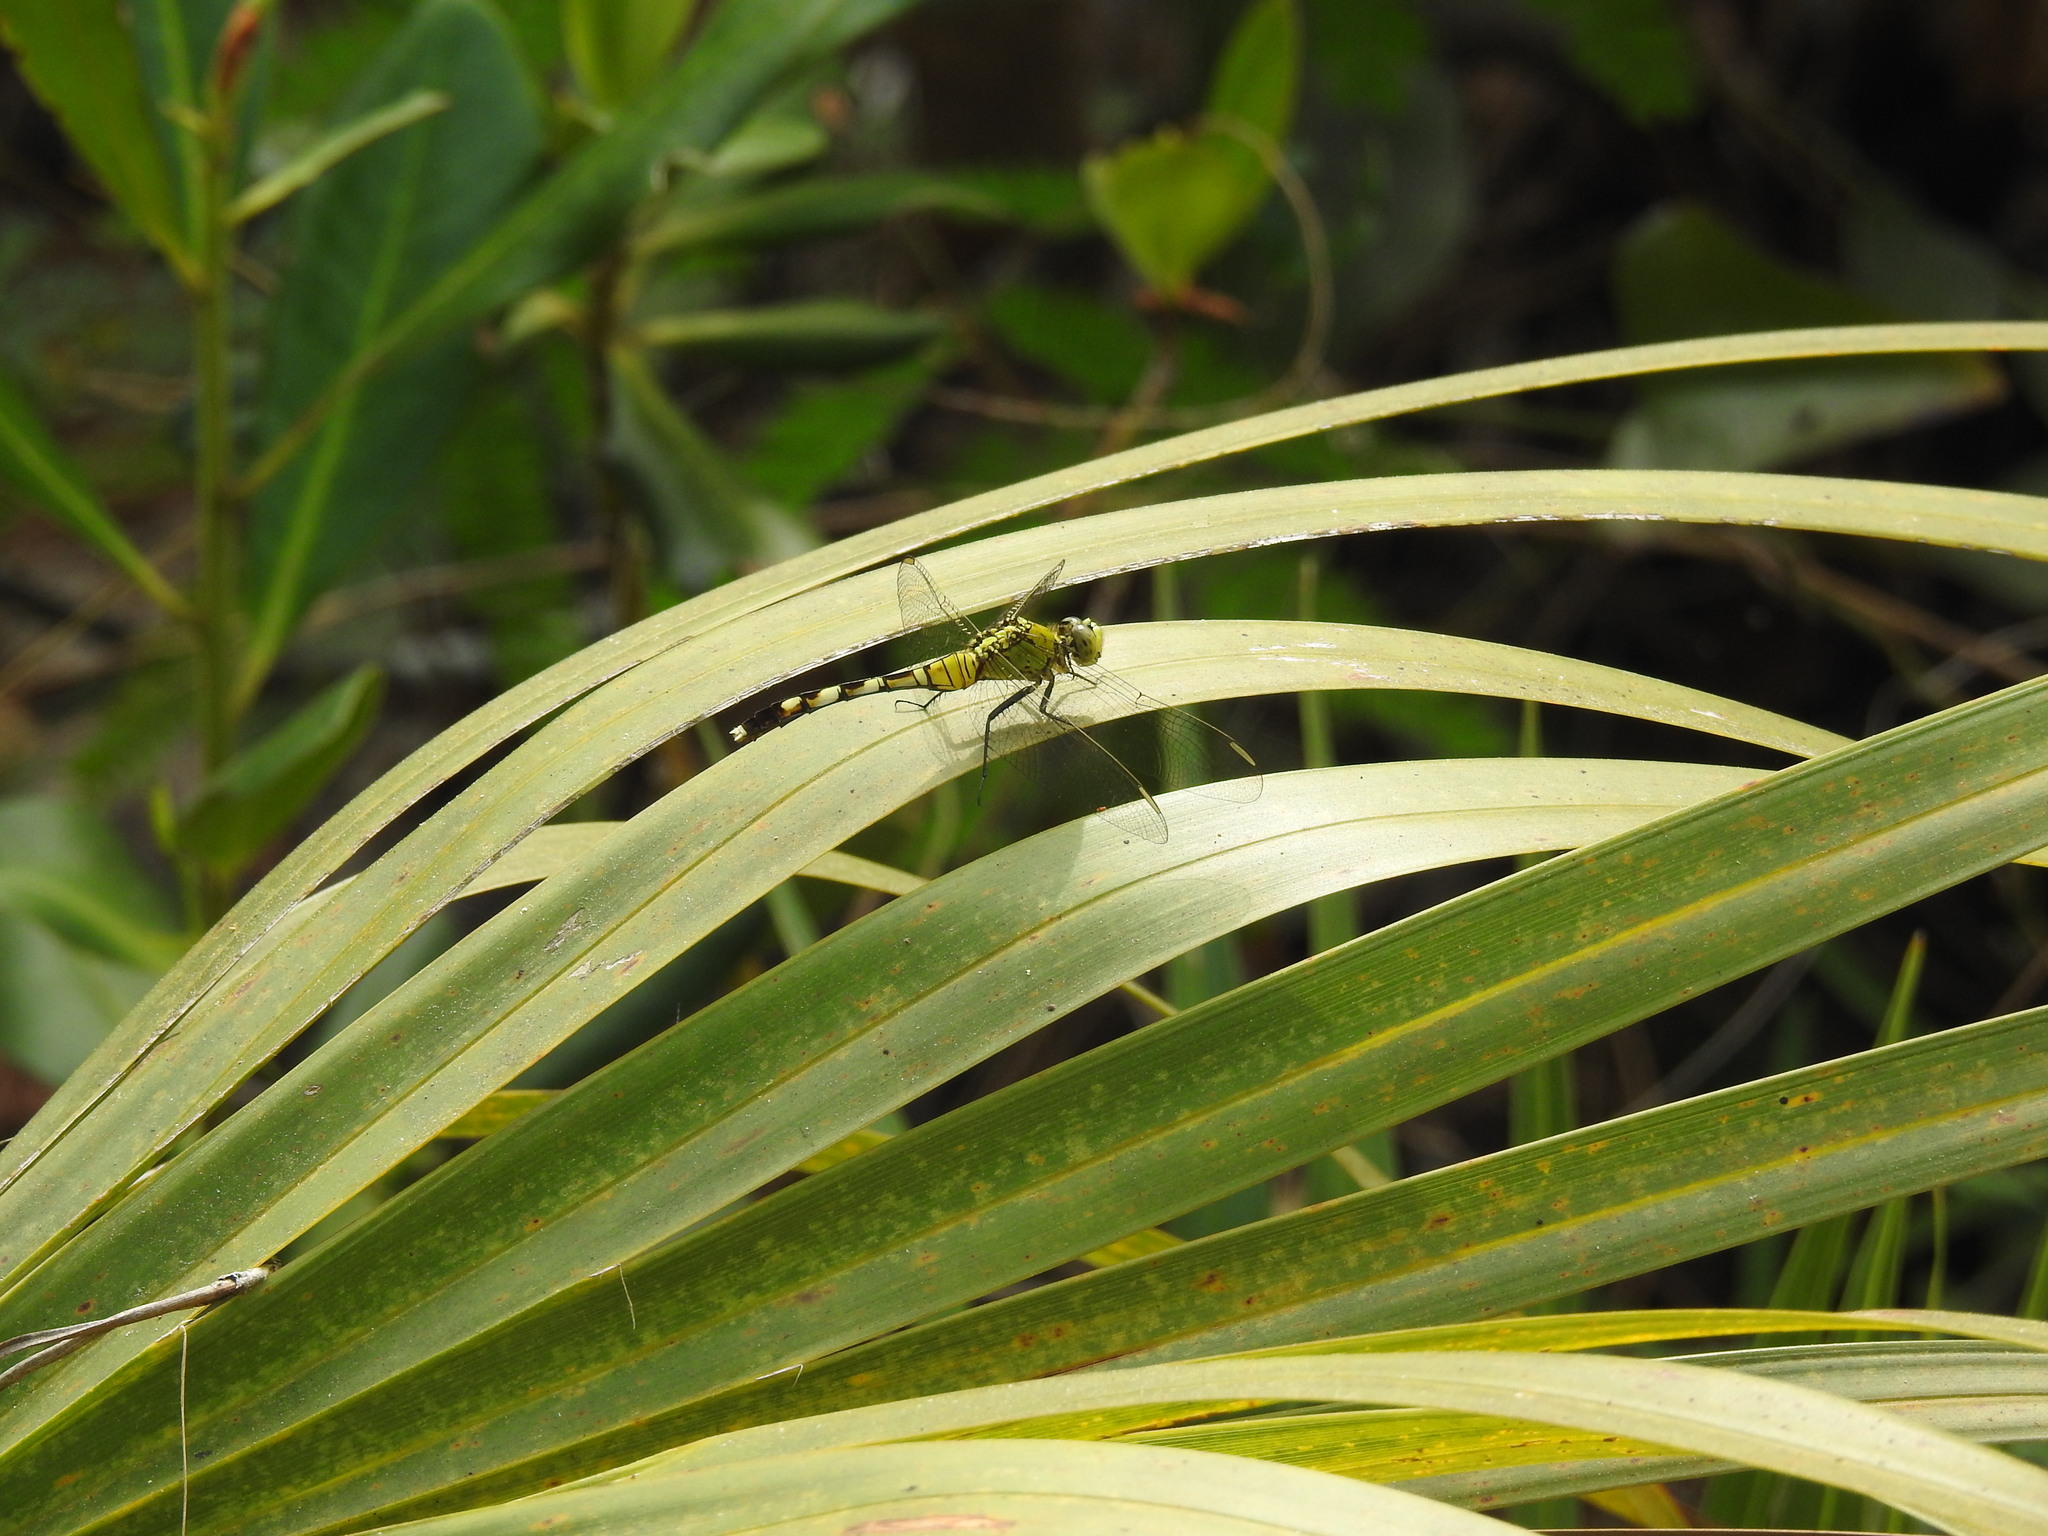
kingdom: Animalia
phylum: Arthropoda
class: Insecta
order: Odonata
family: Libellulidae
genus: Erythemis
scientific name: Erythemis simplicicollis
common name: Eastern pondhawk
